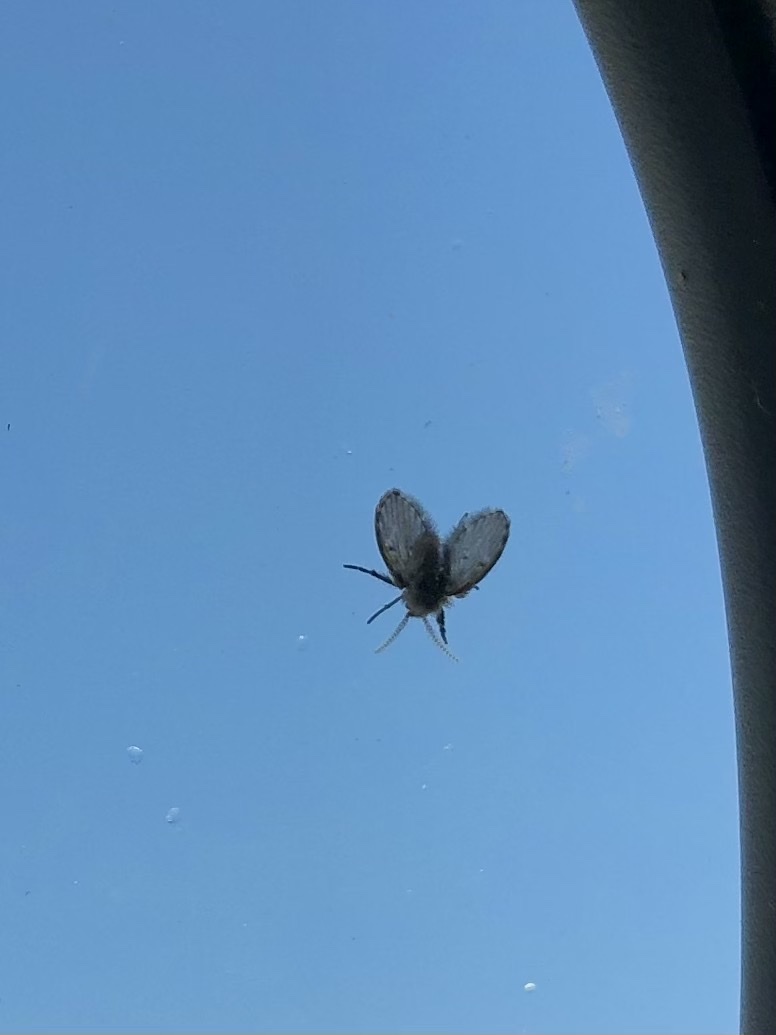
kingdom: Animalia
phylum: Arthropoda
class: Insecta
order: Diptera
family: Psychodidae
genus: Clogmia
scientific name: Clogmia albipunctatus
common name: White-spotted moth fly
